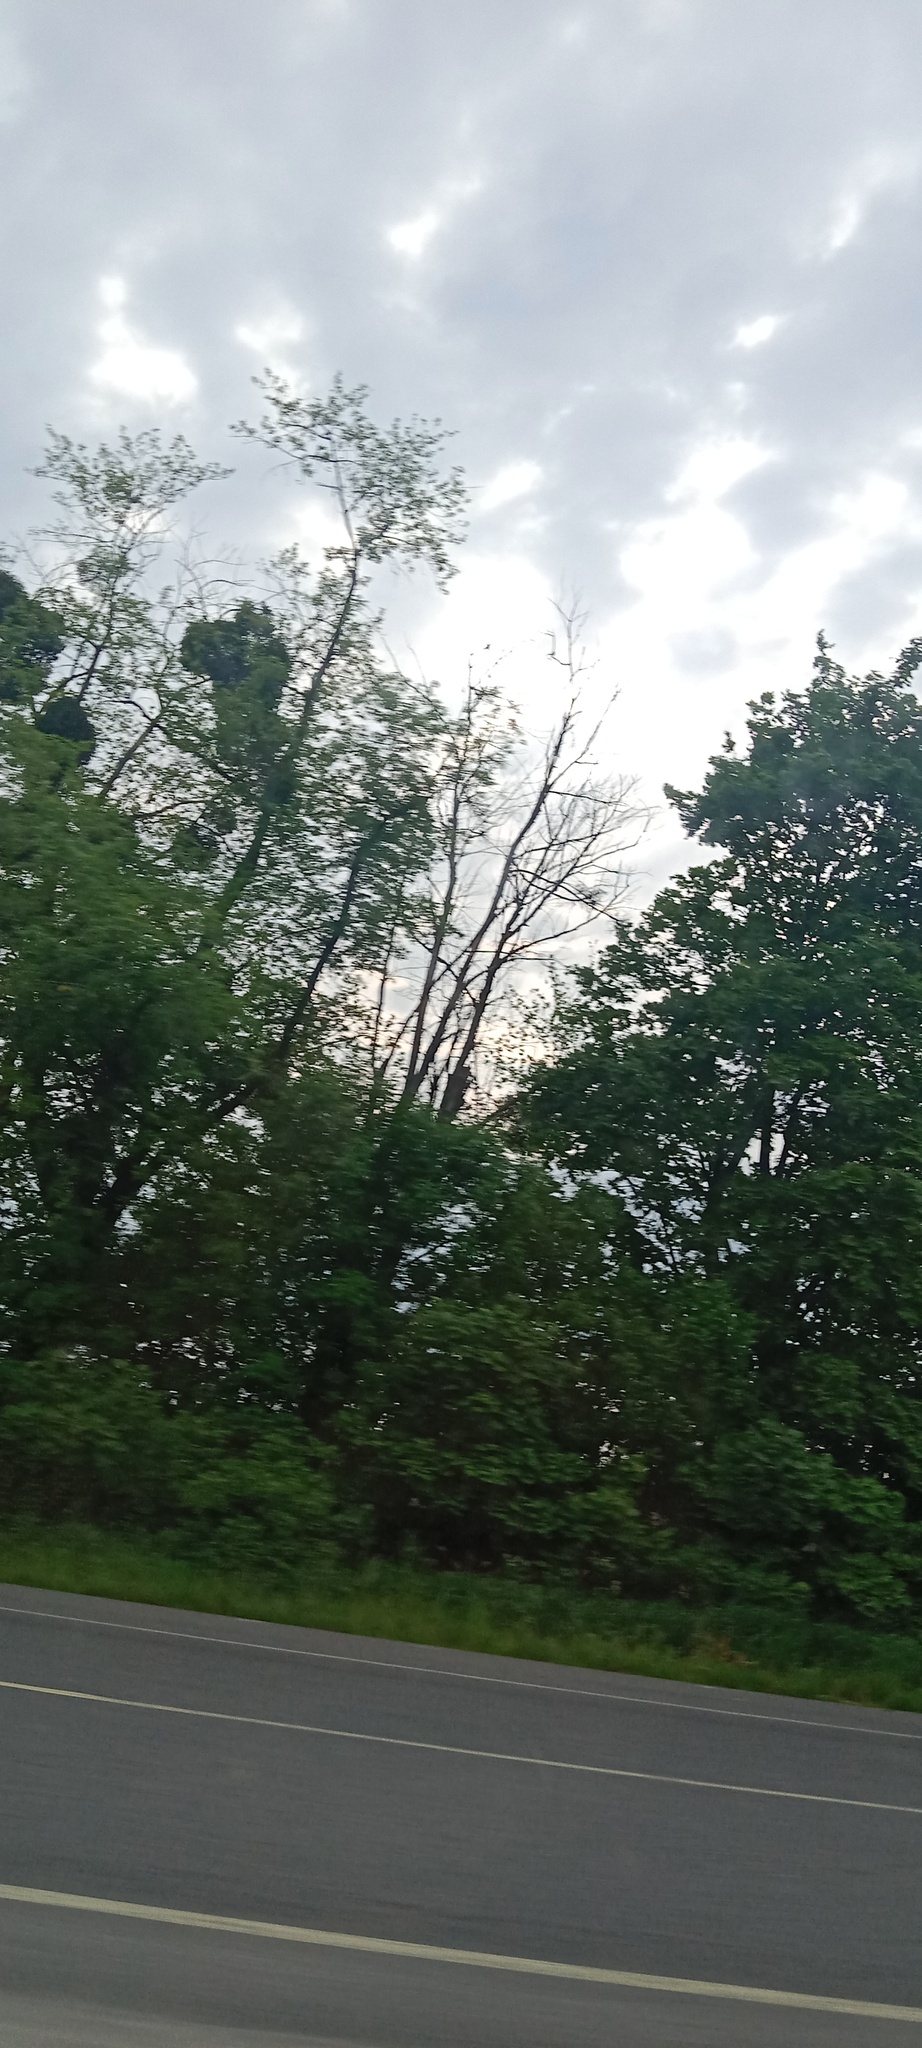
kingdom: Plantae
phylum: Tracheophyta
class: Magnoliopsida
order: Santalales
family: Viscaceae
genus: Viscum
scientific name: Viscum album
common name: Mistletoe
